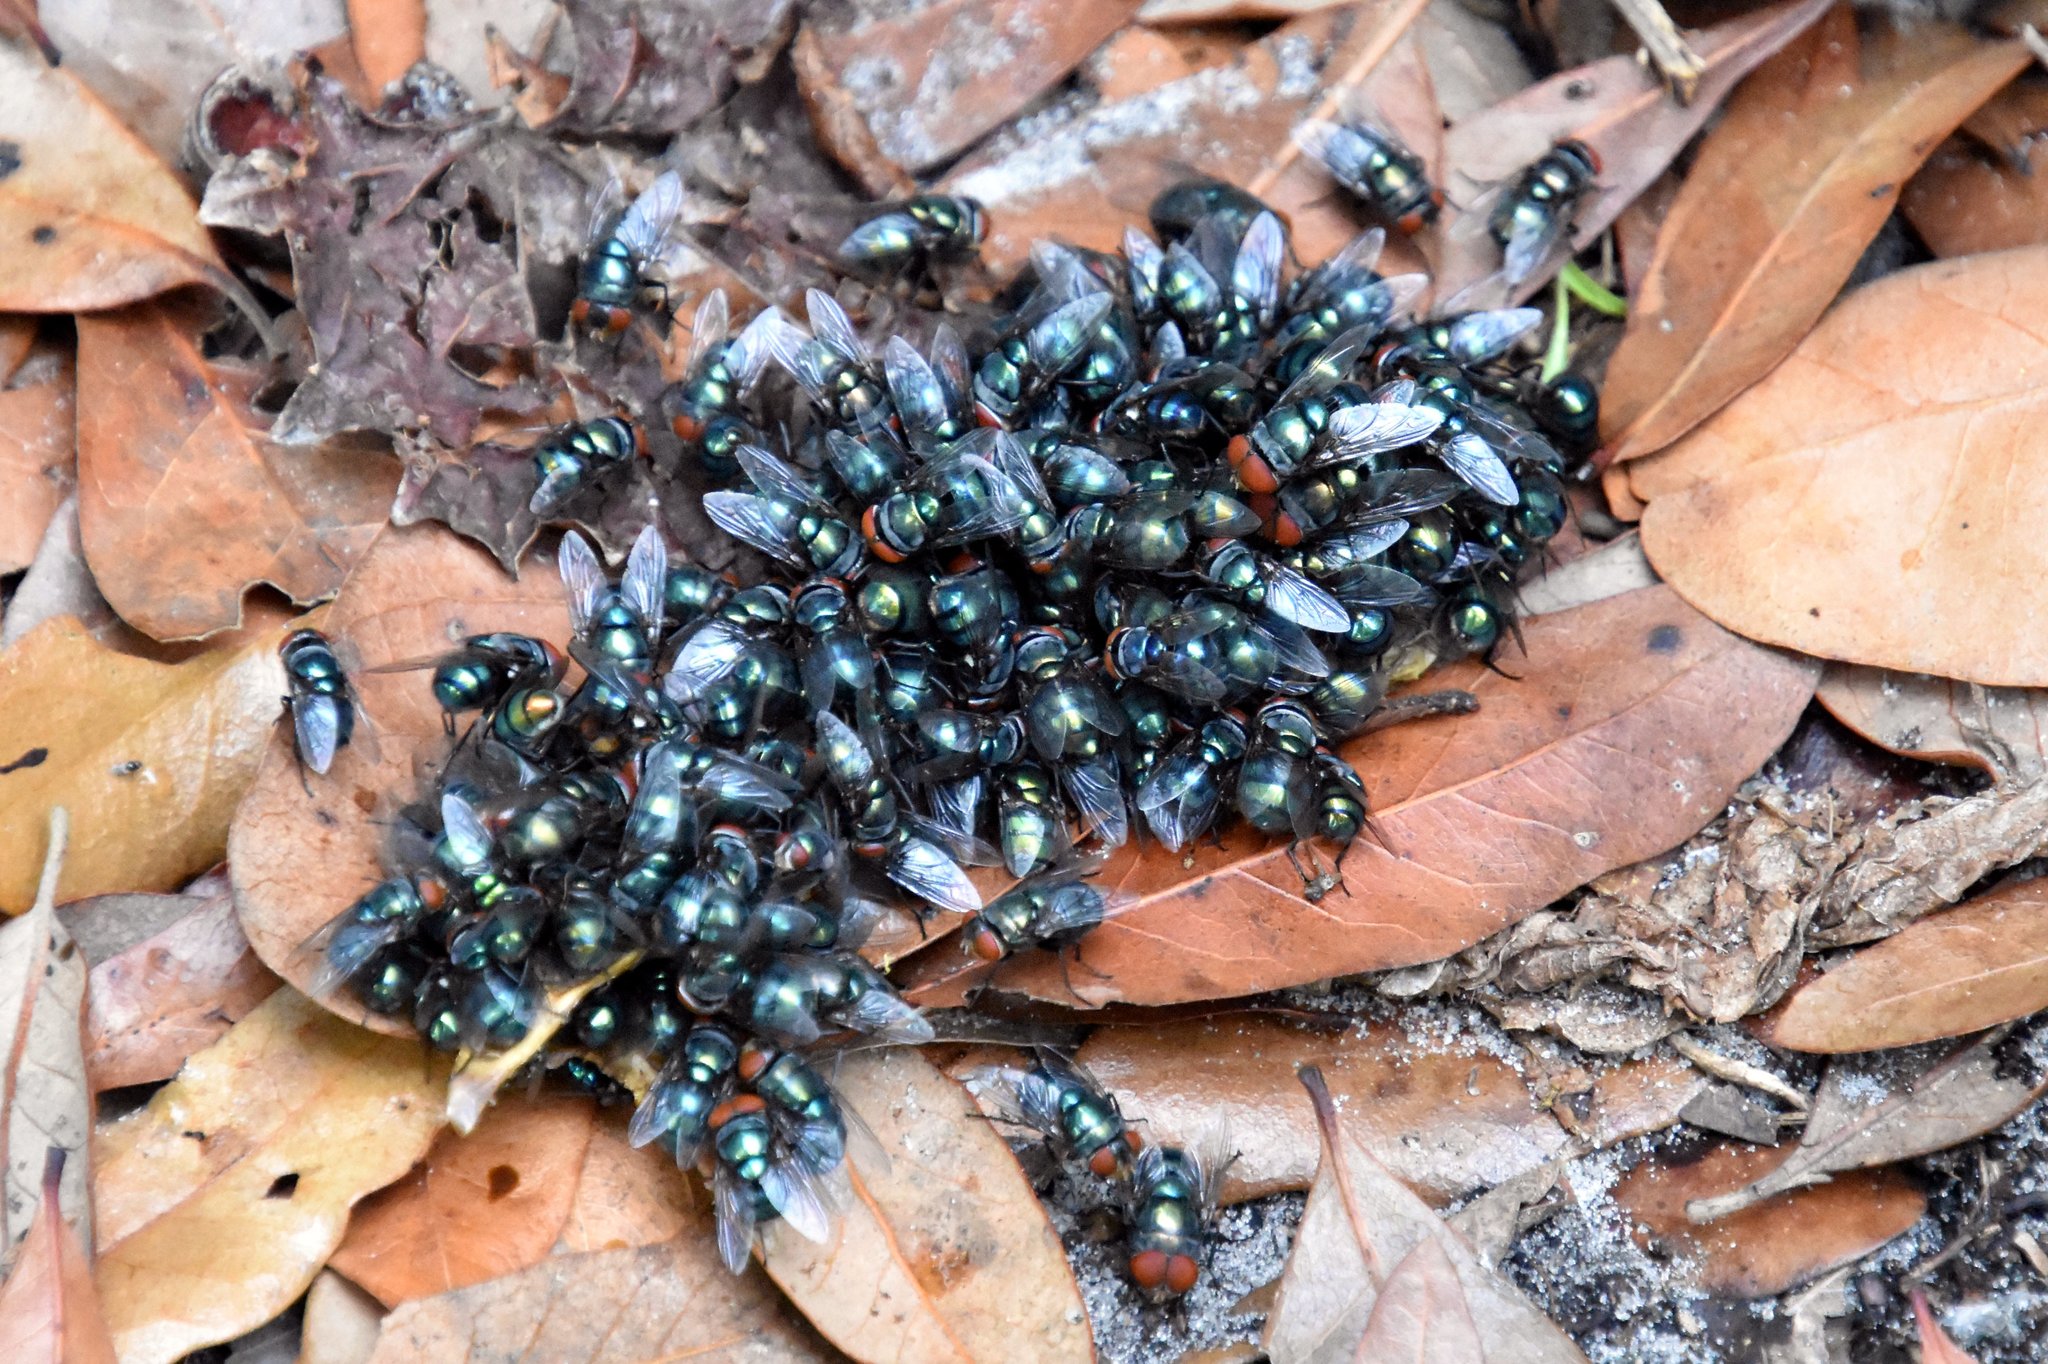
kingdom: Animalia
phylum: Arthropoda
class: Insecta
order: Diptera
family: Calliphoridae
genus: Chrysomya
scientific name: Chrysomya megacephala
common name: Blow fly
